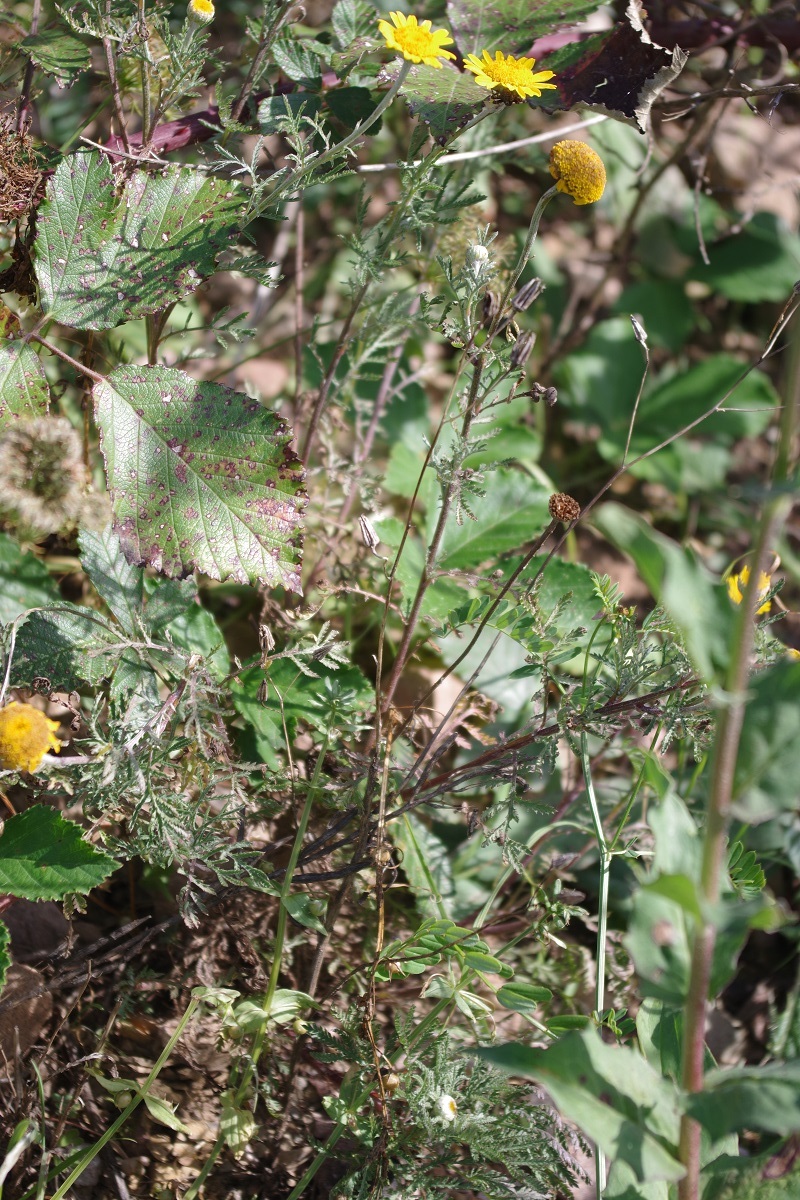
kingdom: Plantae
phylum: Tracheophyta
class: Magnoliopsida
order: Asterales
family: Asteraceae
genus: Cota
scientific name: Cota tinctoria
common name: Golden chamomile
